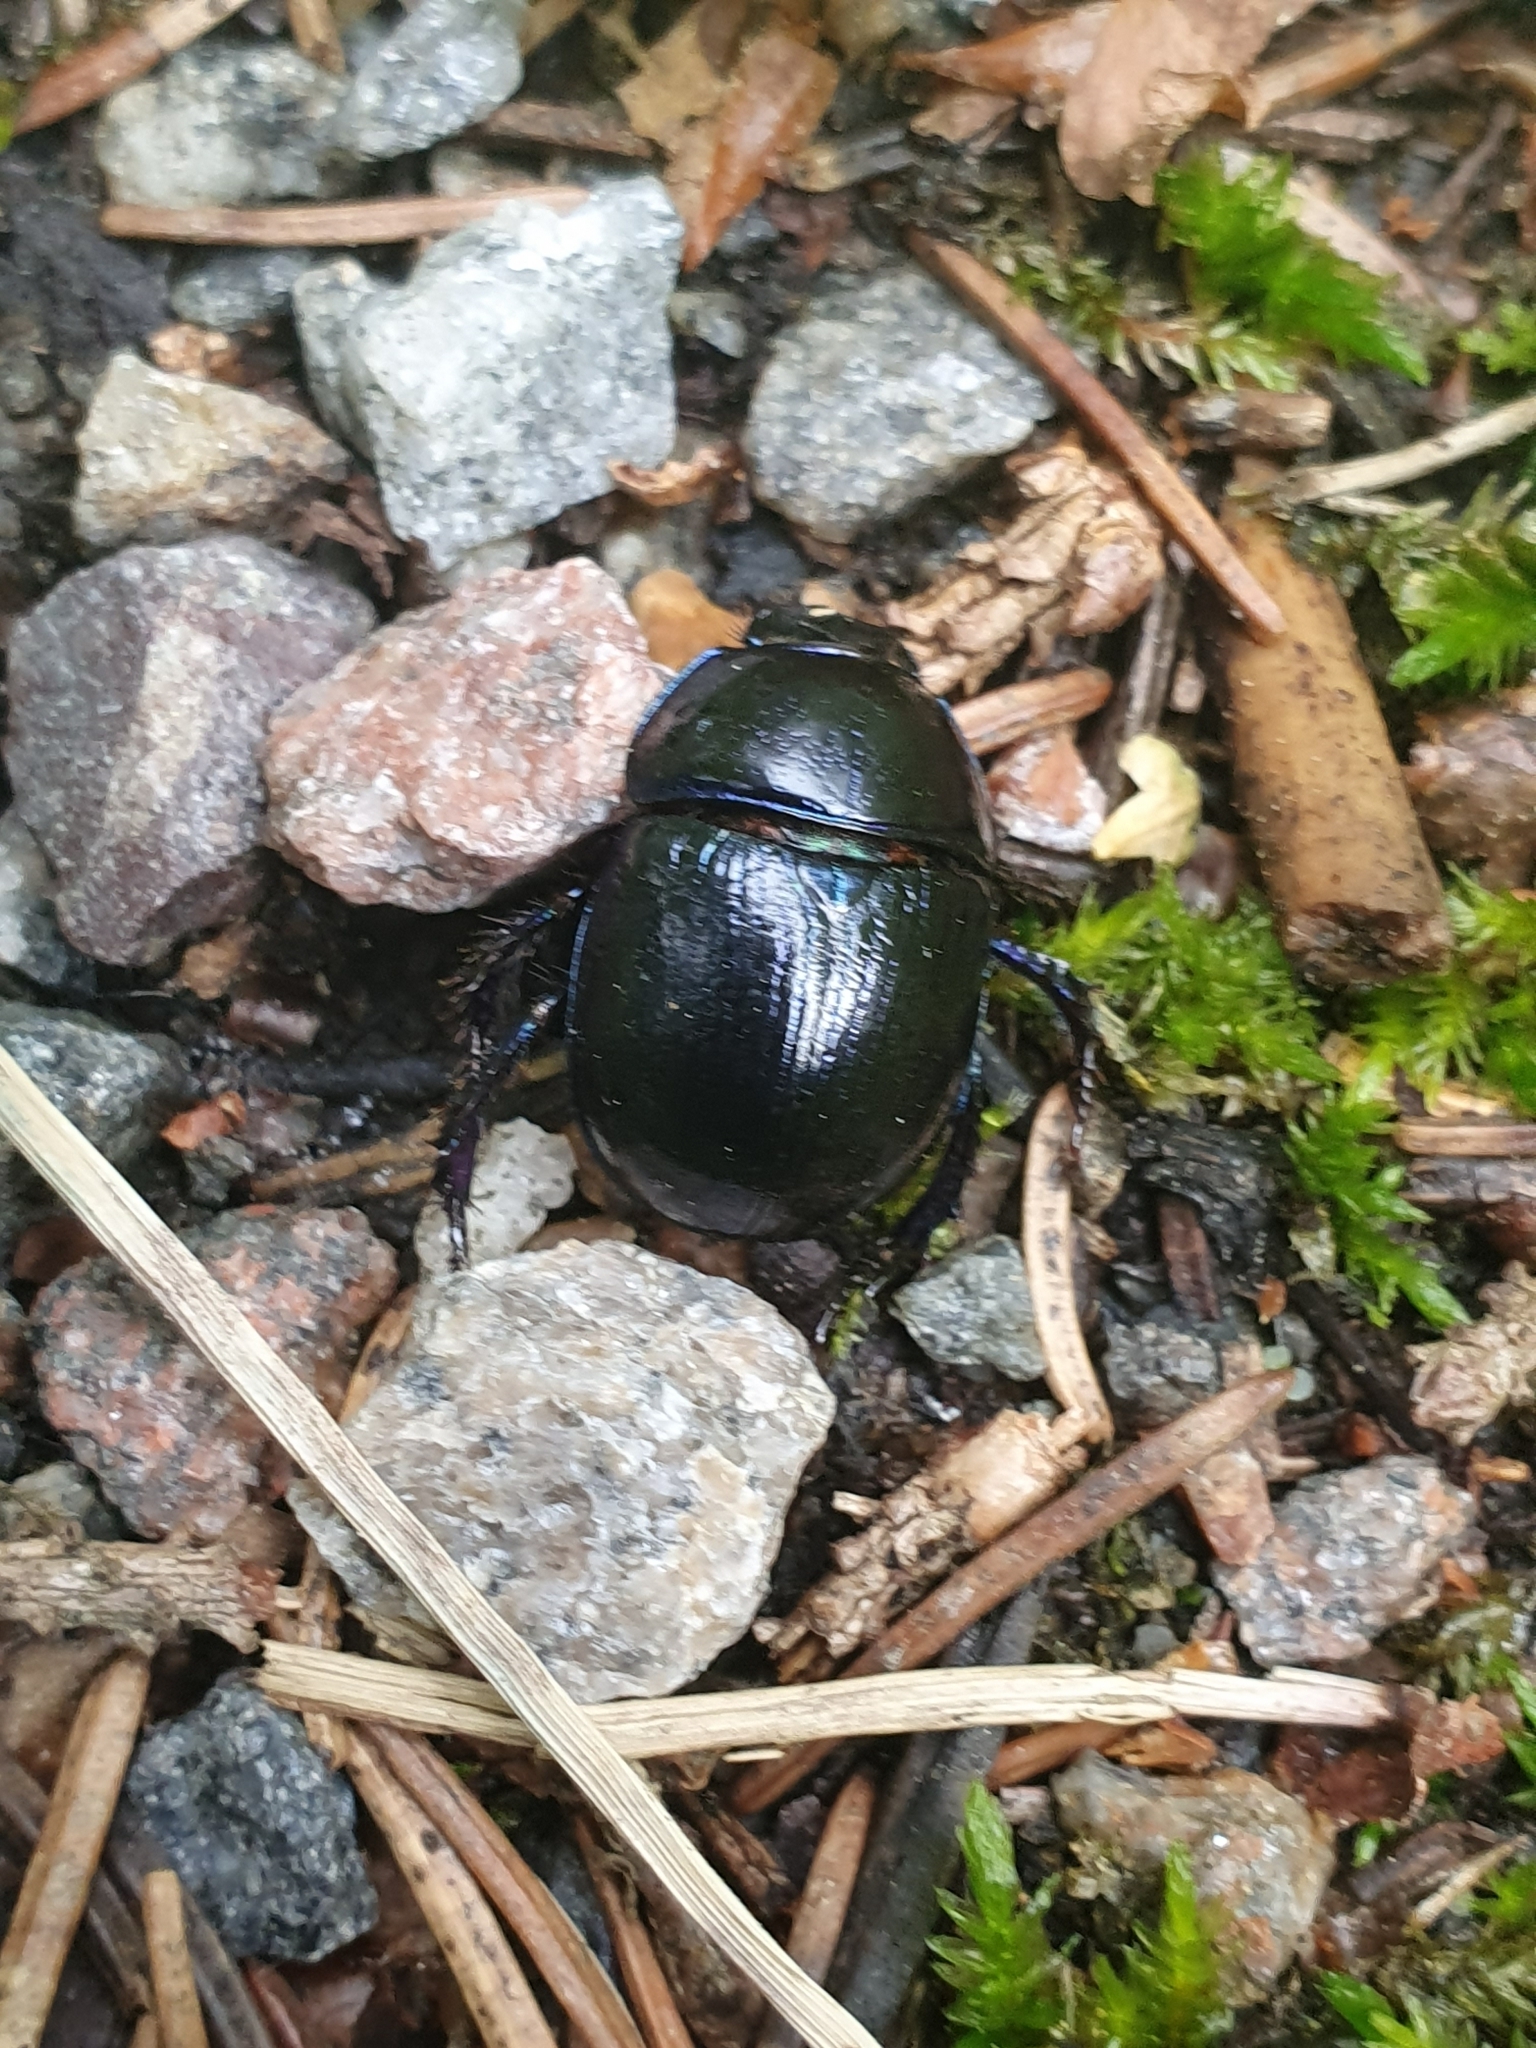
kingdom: Animalia
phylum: Arthropoda
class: Insecta
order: Coleoptera
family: Geotrupidae
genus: Anoplotrupes
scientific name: Anoplotrupes stercorosus
